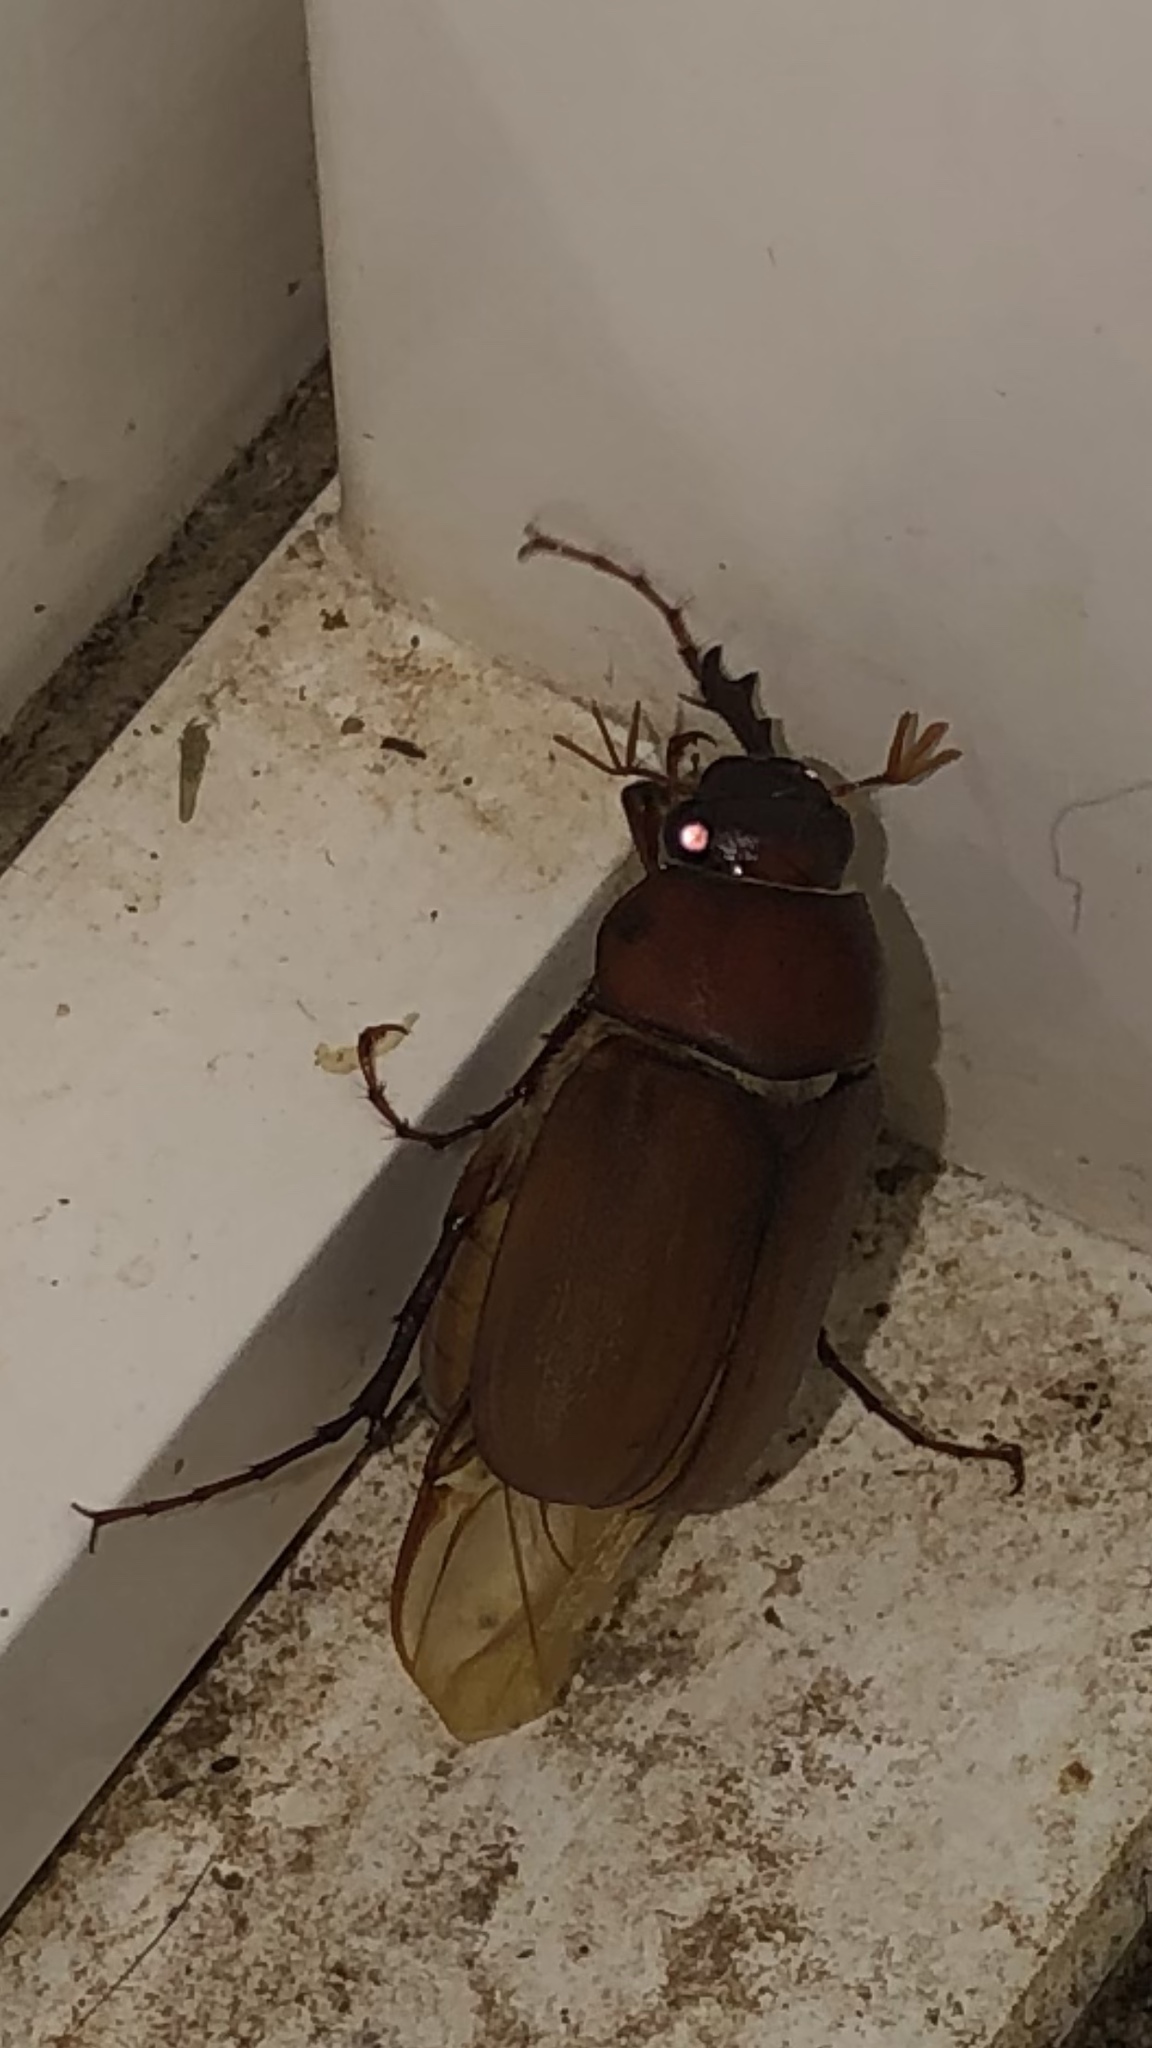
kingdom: Animalia
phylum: Arthropoda
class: Insecta
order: Coleoptera
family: Scarabaeidae
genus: Phyllophaga
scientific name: Phyllophaga
